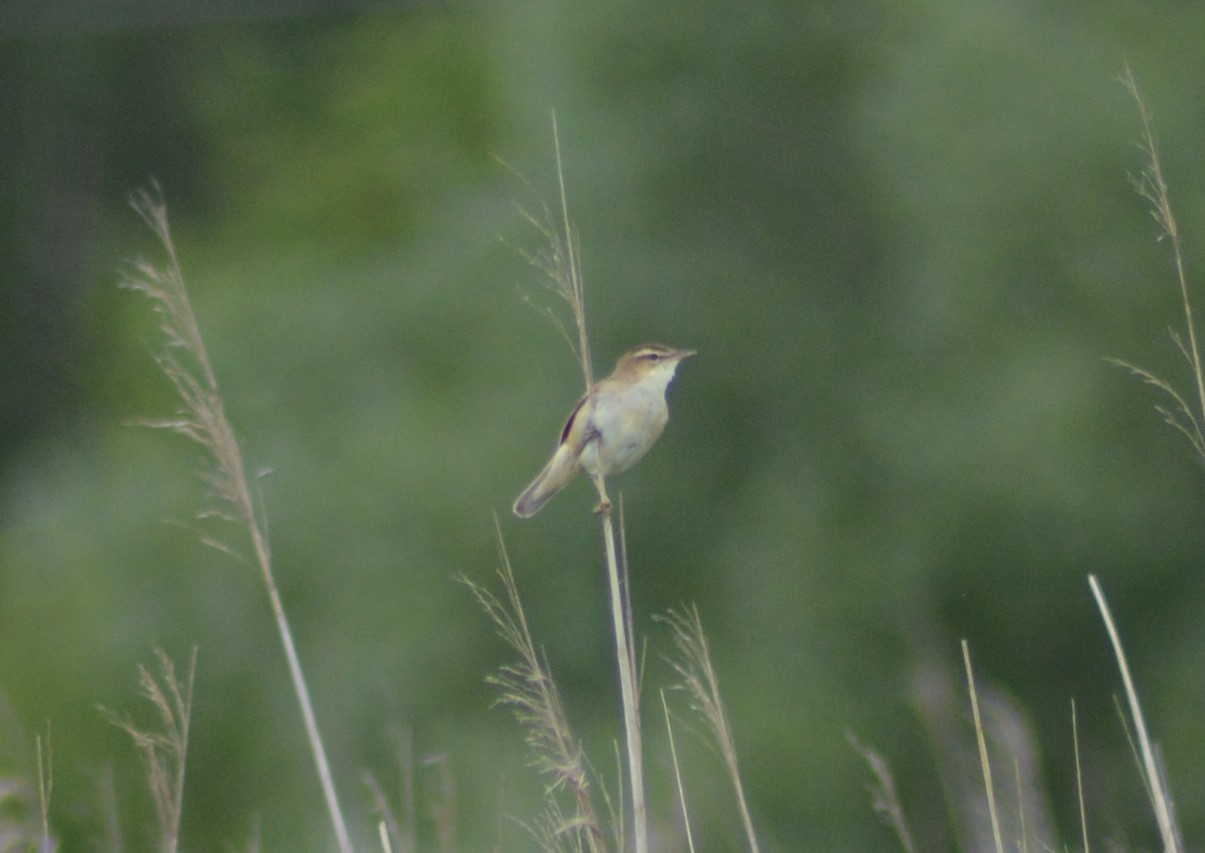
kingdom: Animalia
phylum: Chordata
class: Aves
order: Passeriformes
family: Acrocephalidae
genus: Acrocephalus
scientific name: Acrocephalus schoenobaenus
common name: Sedge warbler
